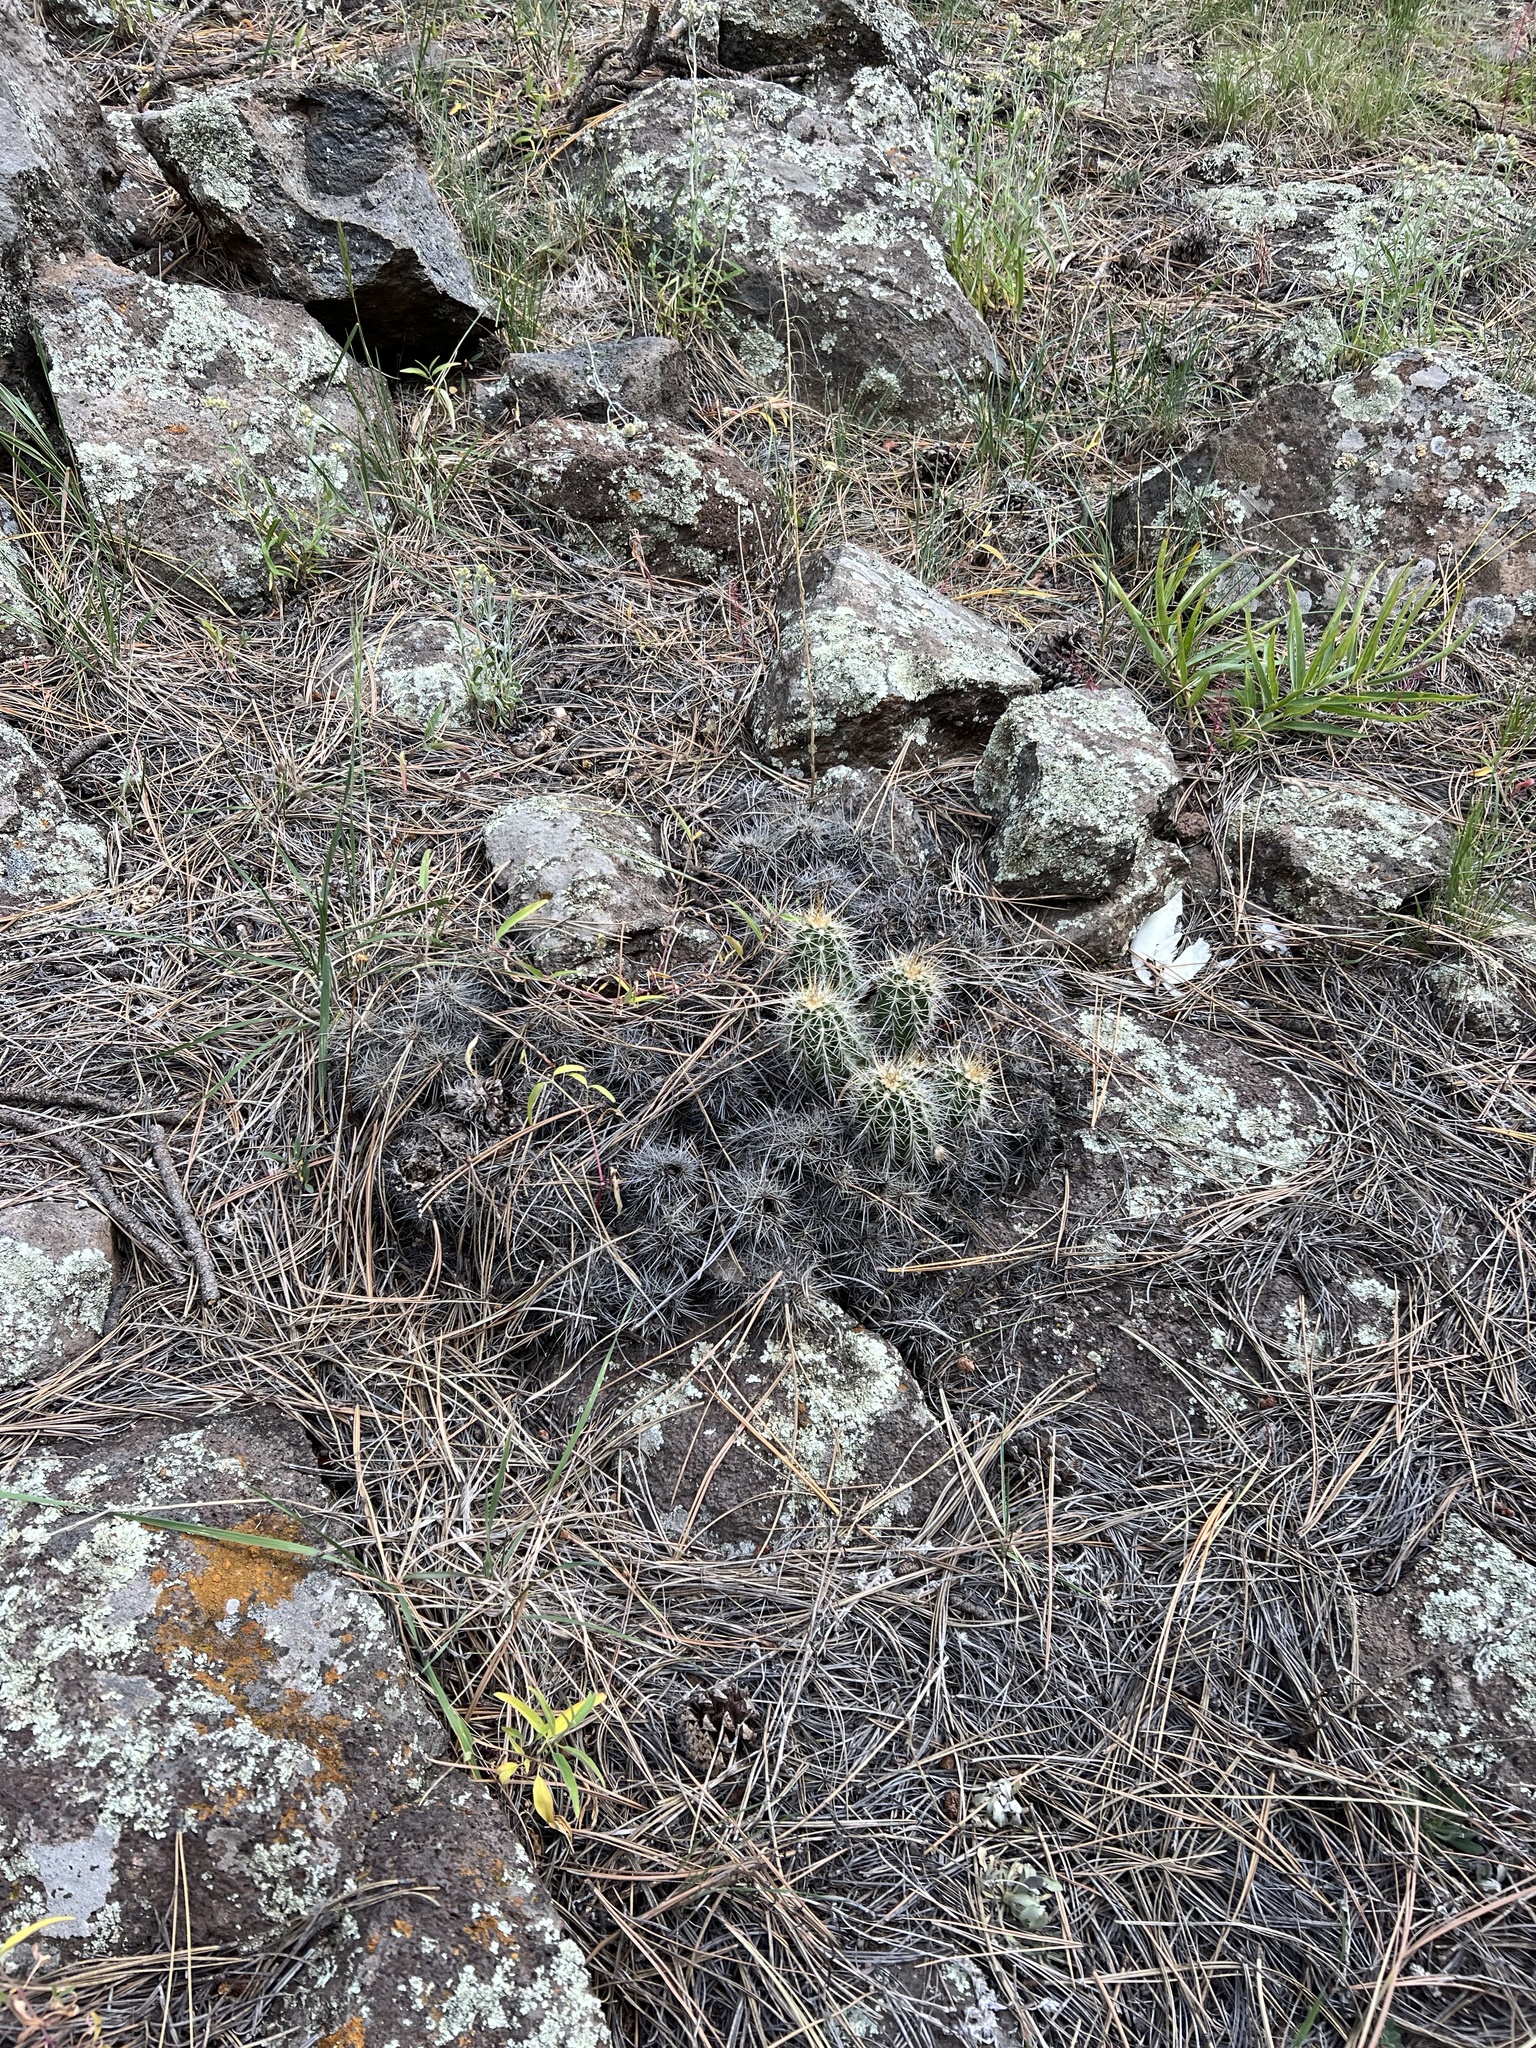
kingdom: Plantae
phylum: Tracheophyta
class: Magnoliopsida
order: Caryophyllales
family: Cactaceae
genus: Echinocereus
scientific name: Echinocereus bakeri
